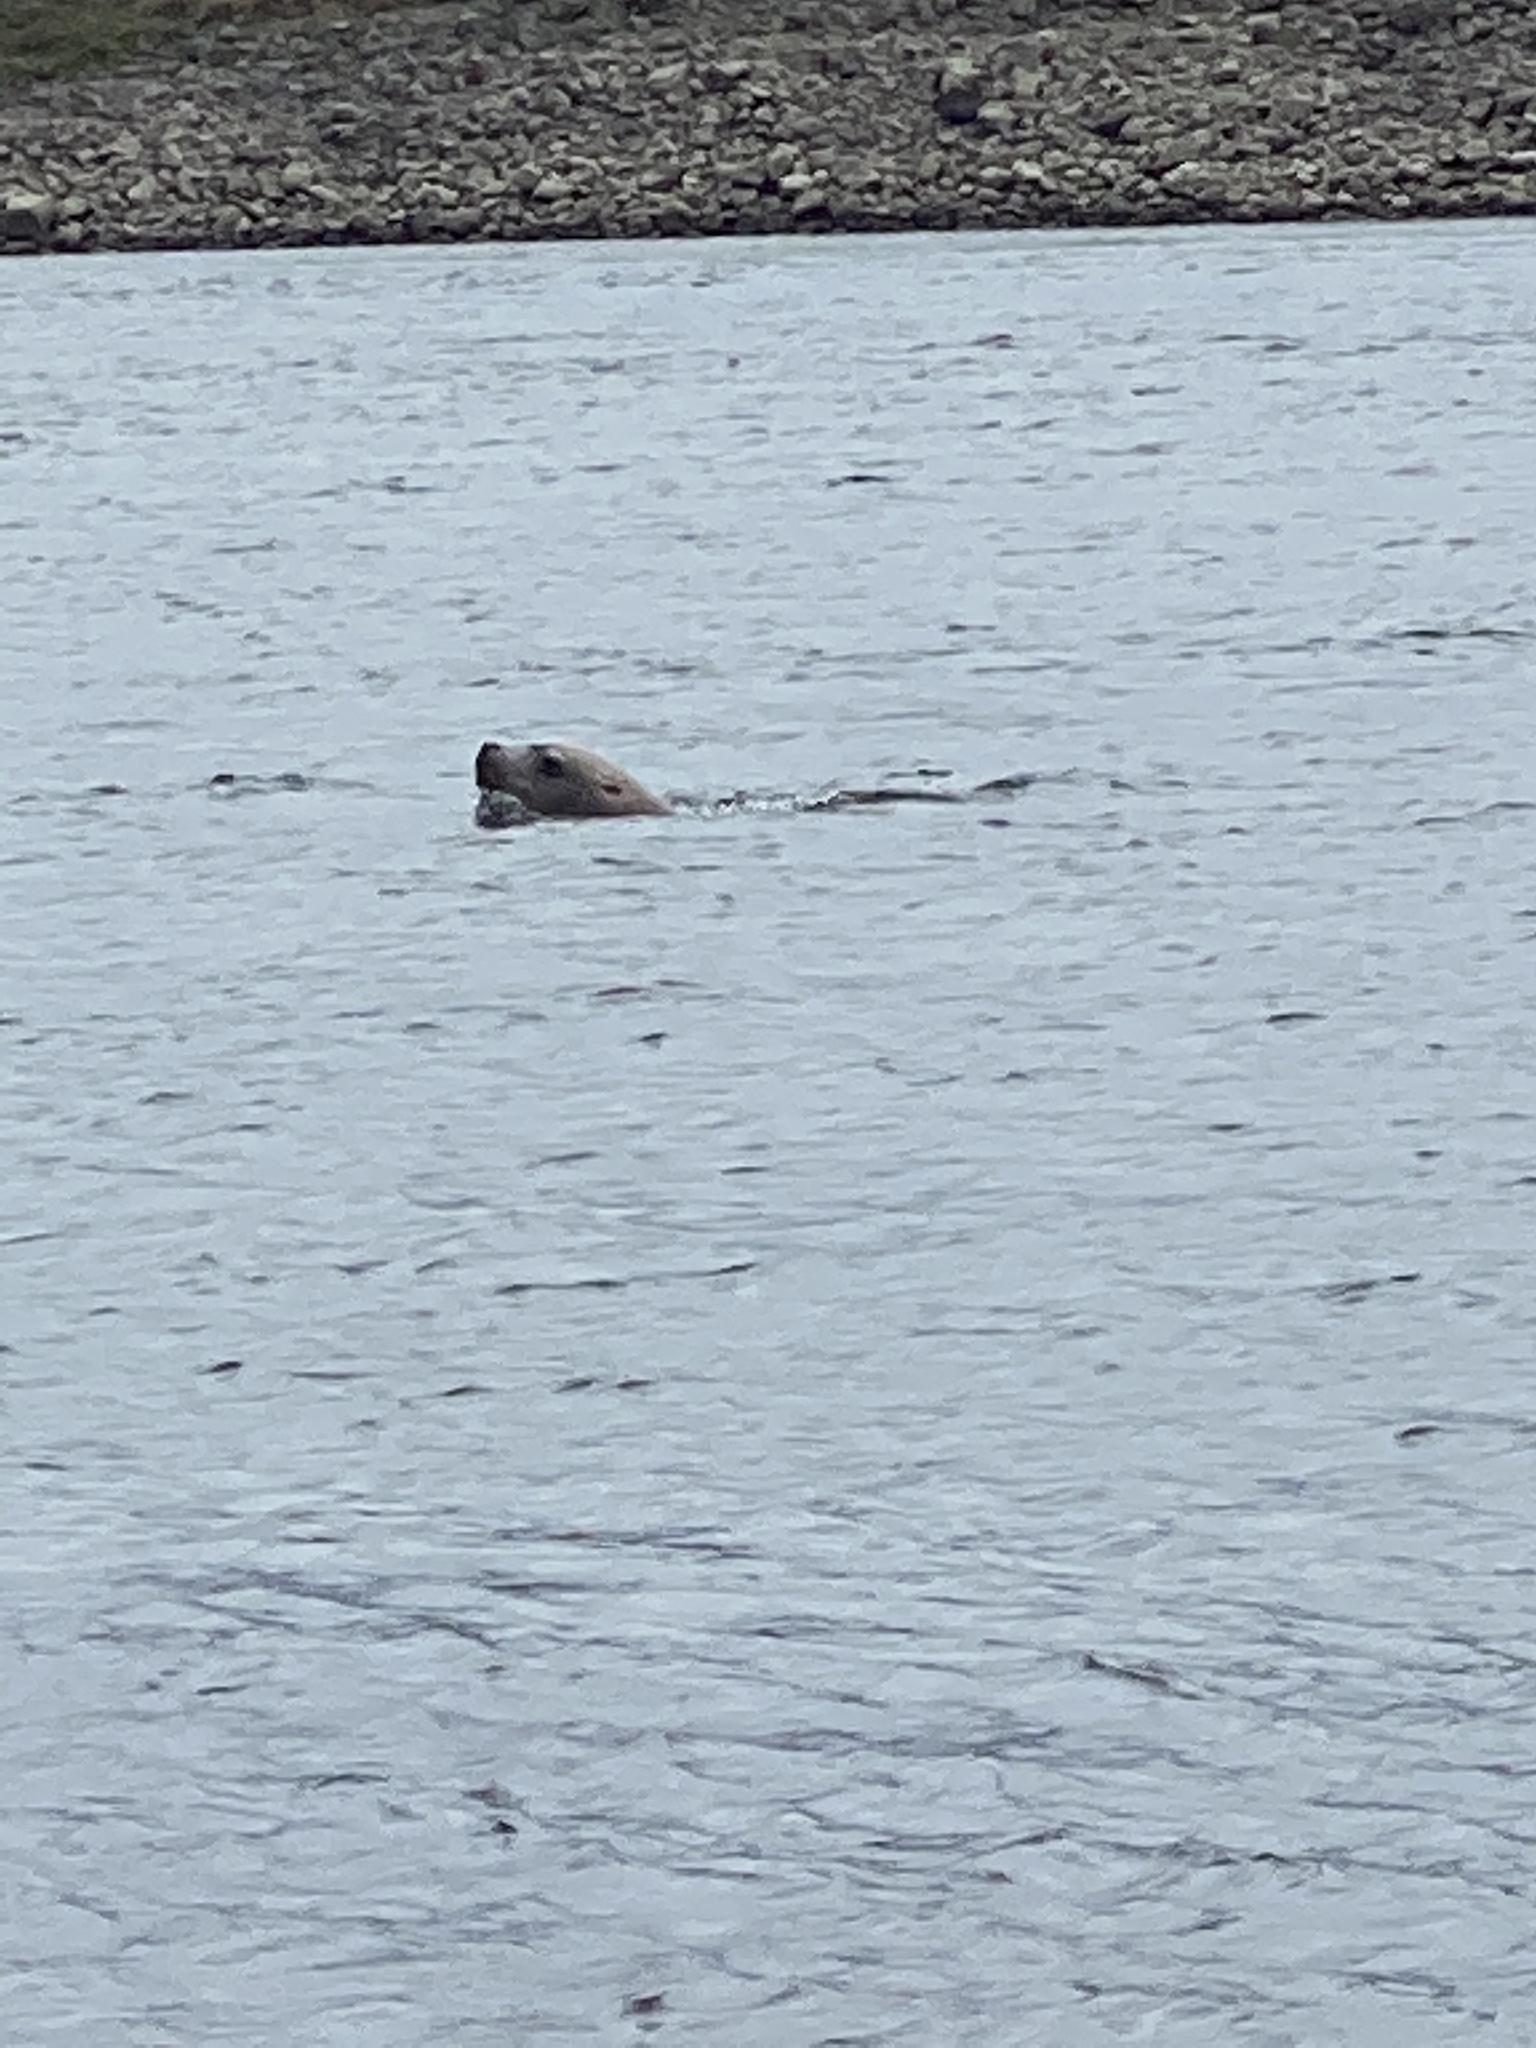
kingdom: Animalia
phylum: Chordata
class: Mammalia
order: Carnivora
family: Otariidae
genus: Eumetopias
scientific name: Eumetopias jubatus
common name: Steller sea lion
